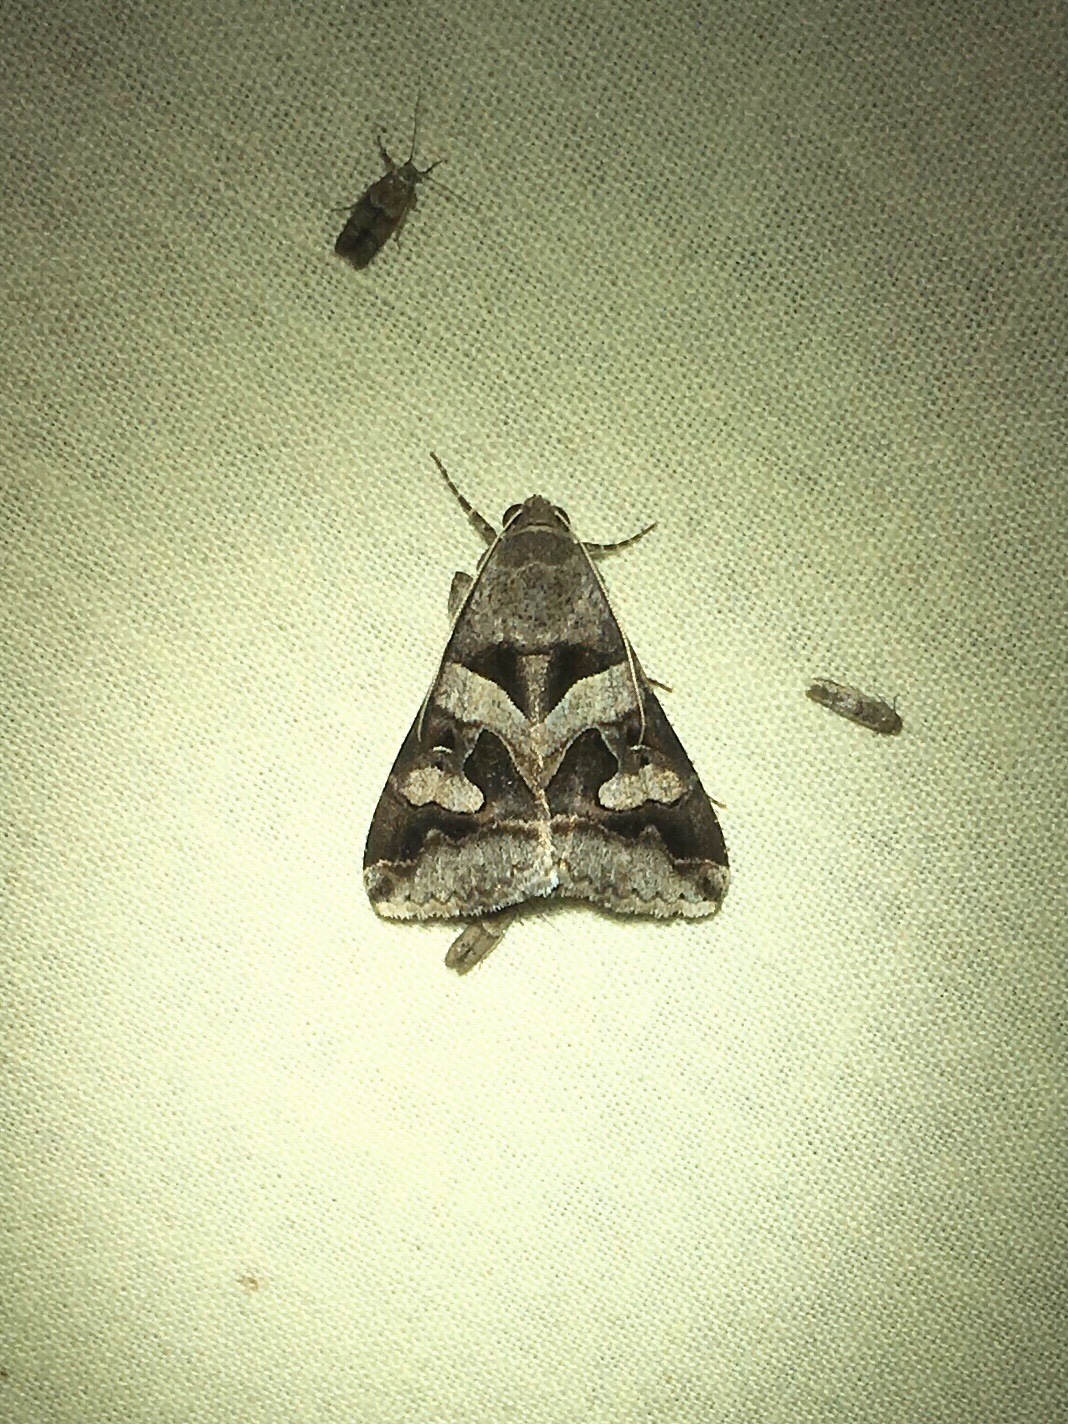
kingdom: Animalia
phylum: Arthropoda
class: Insecta
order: Lepidoptera
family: Erebidae
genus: Melipotis
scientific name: Melipotis florida
